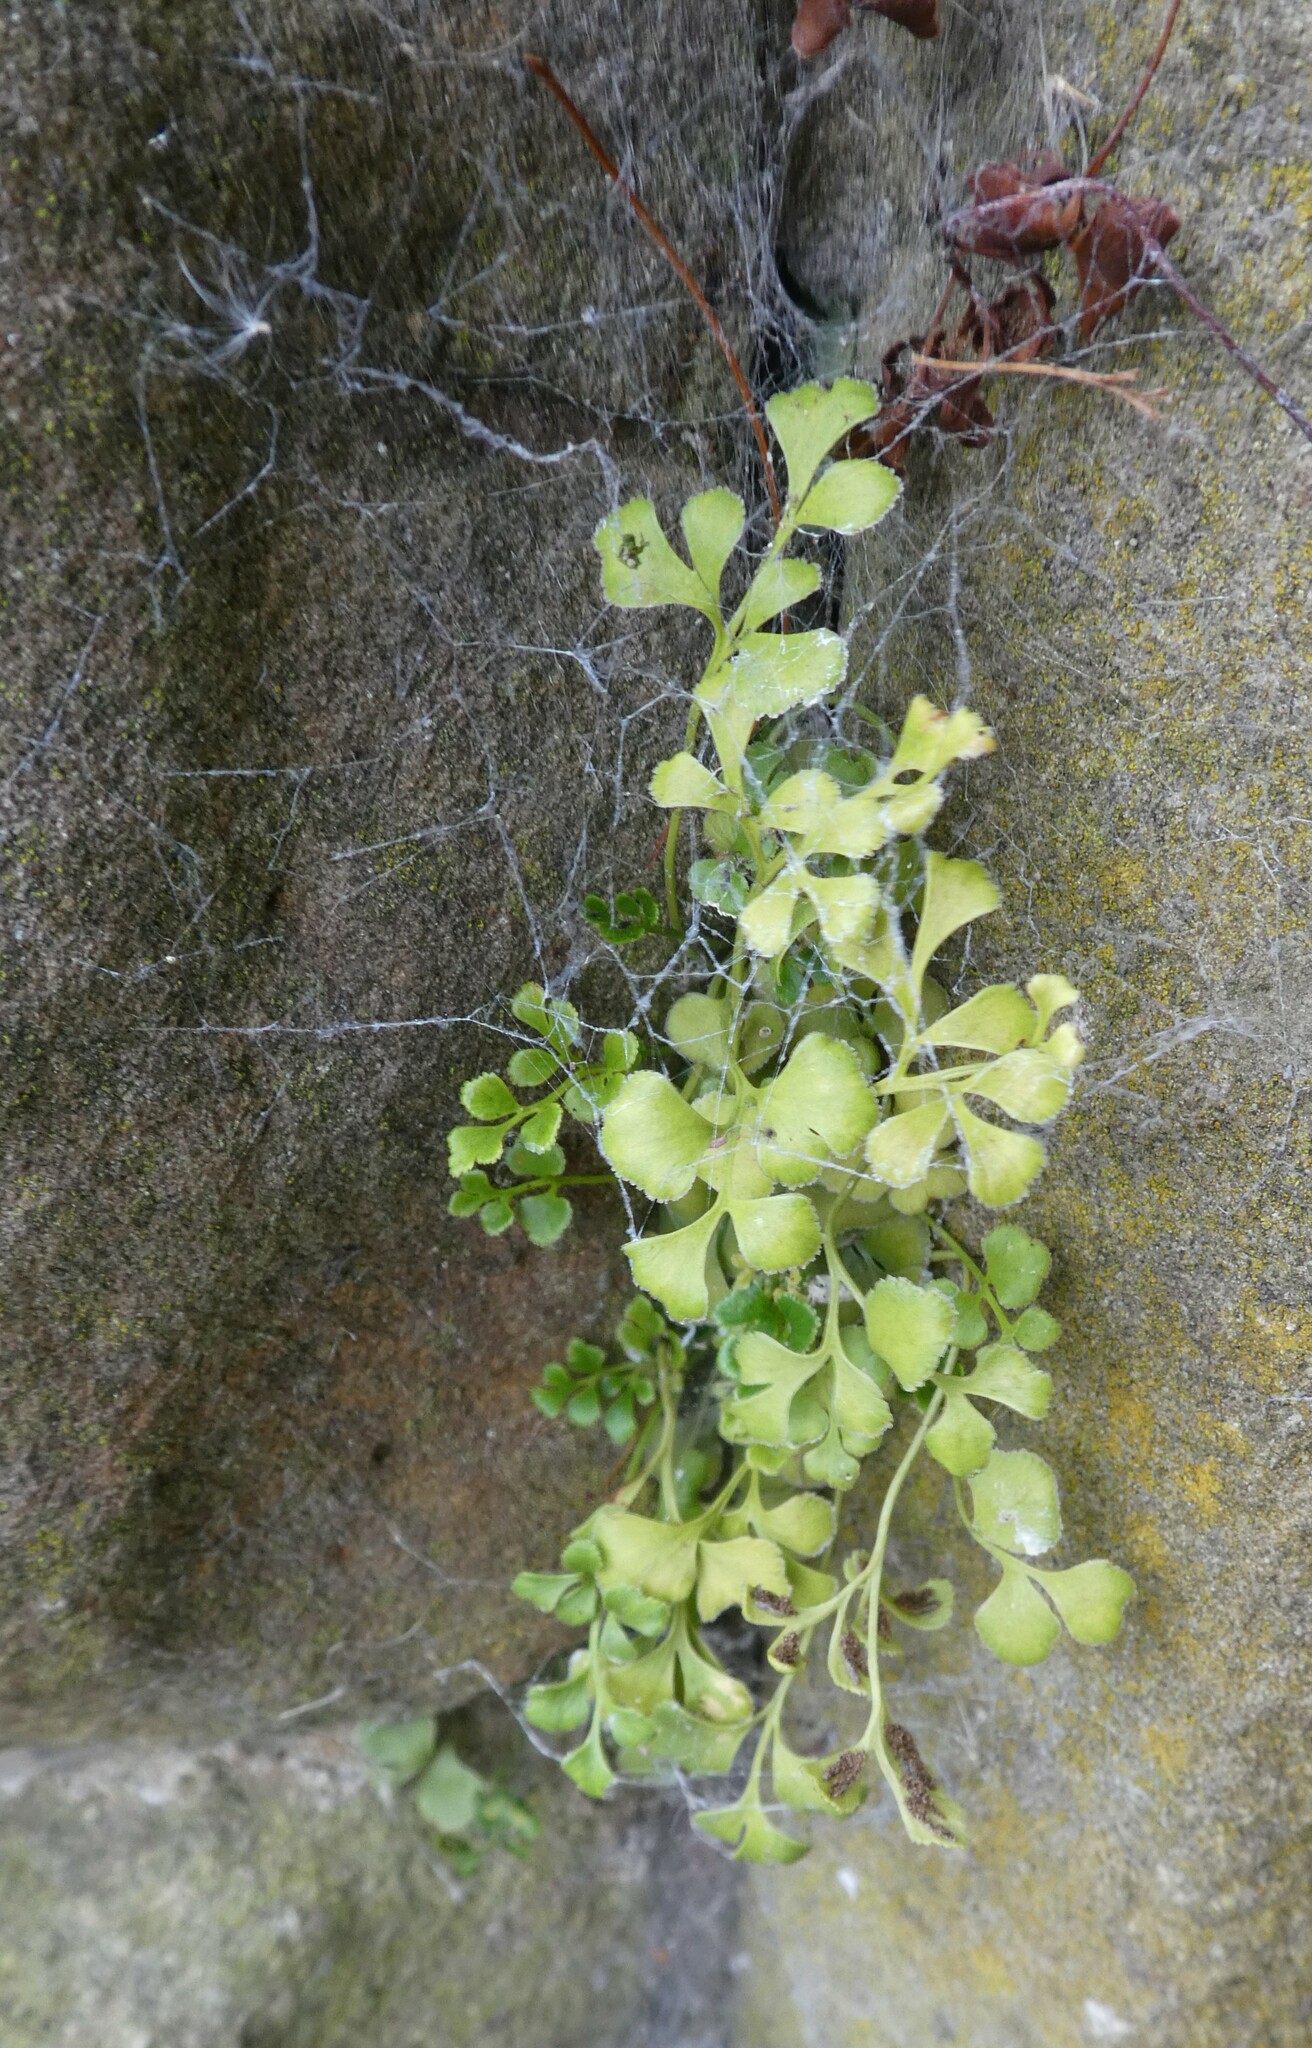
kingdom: Plantae
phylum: Tracheophyta
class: Polypodiopsida
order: Polypodiales
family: Aspleniaceae
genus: Asplenium
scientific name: Asplenium ruta-muraria
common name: Wall-rue
